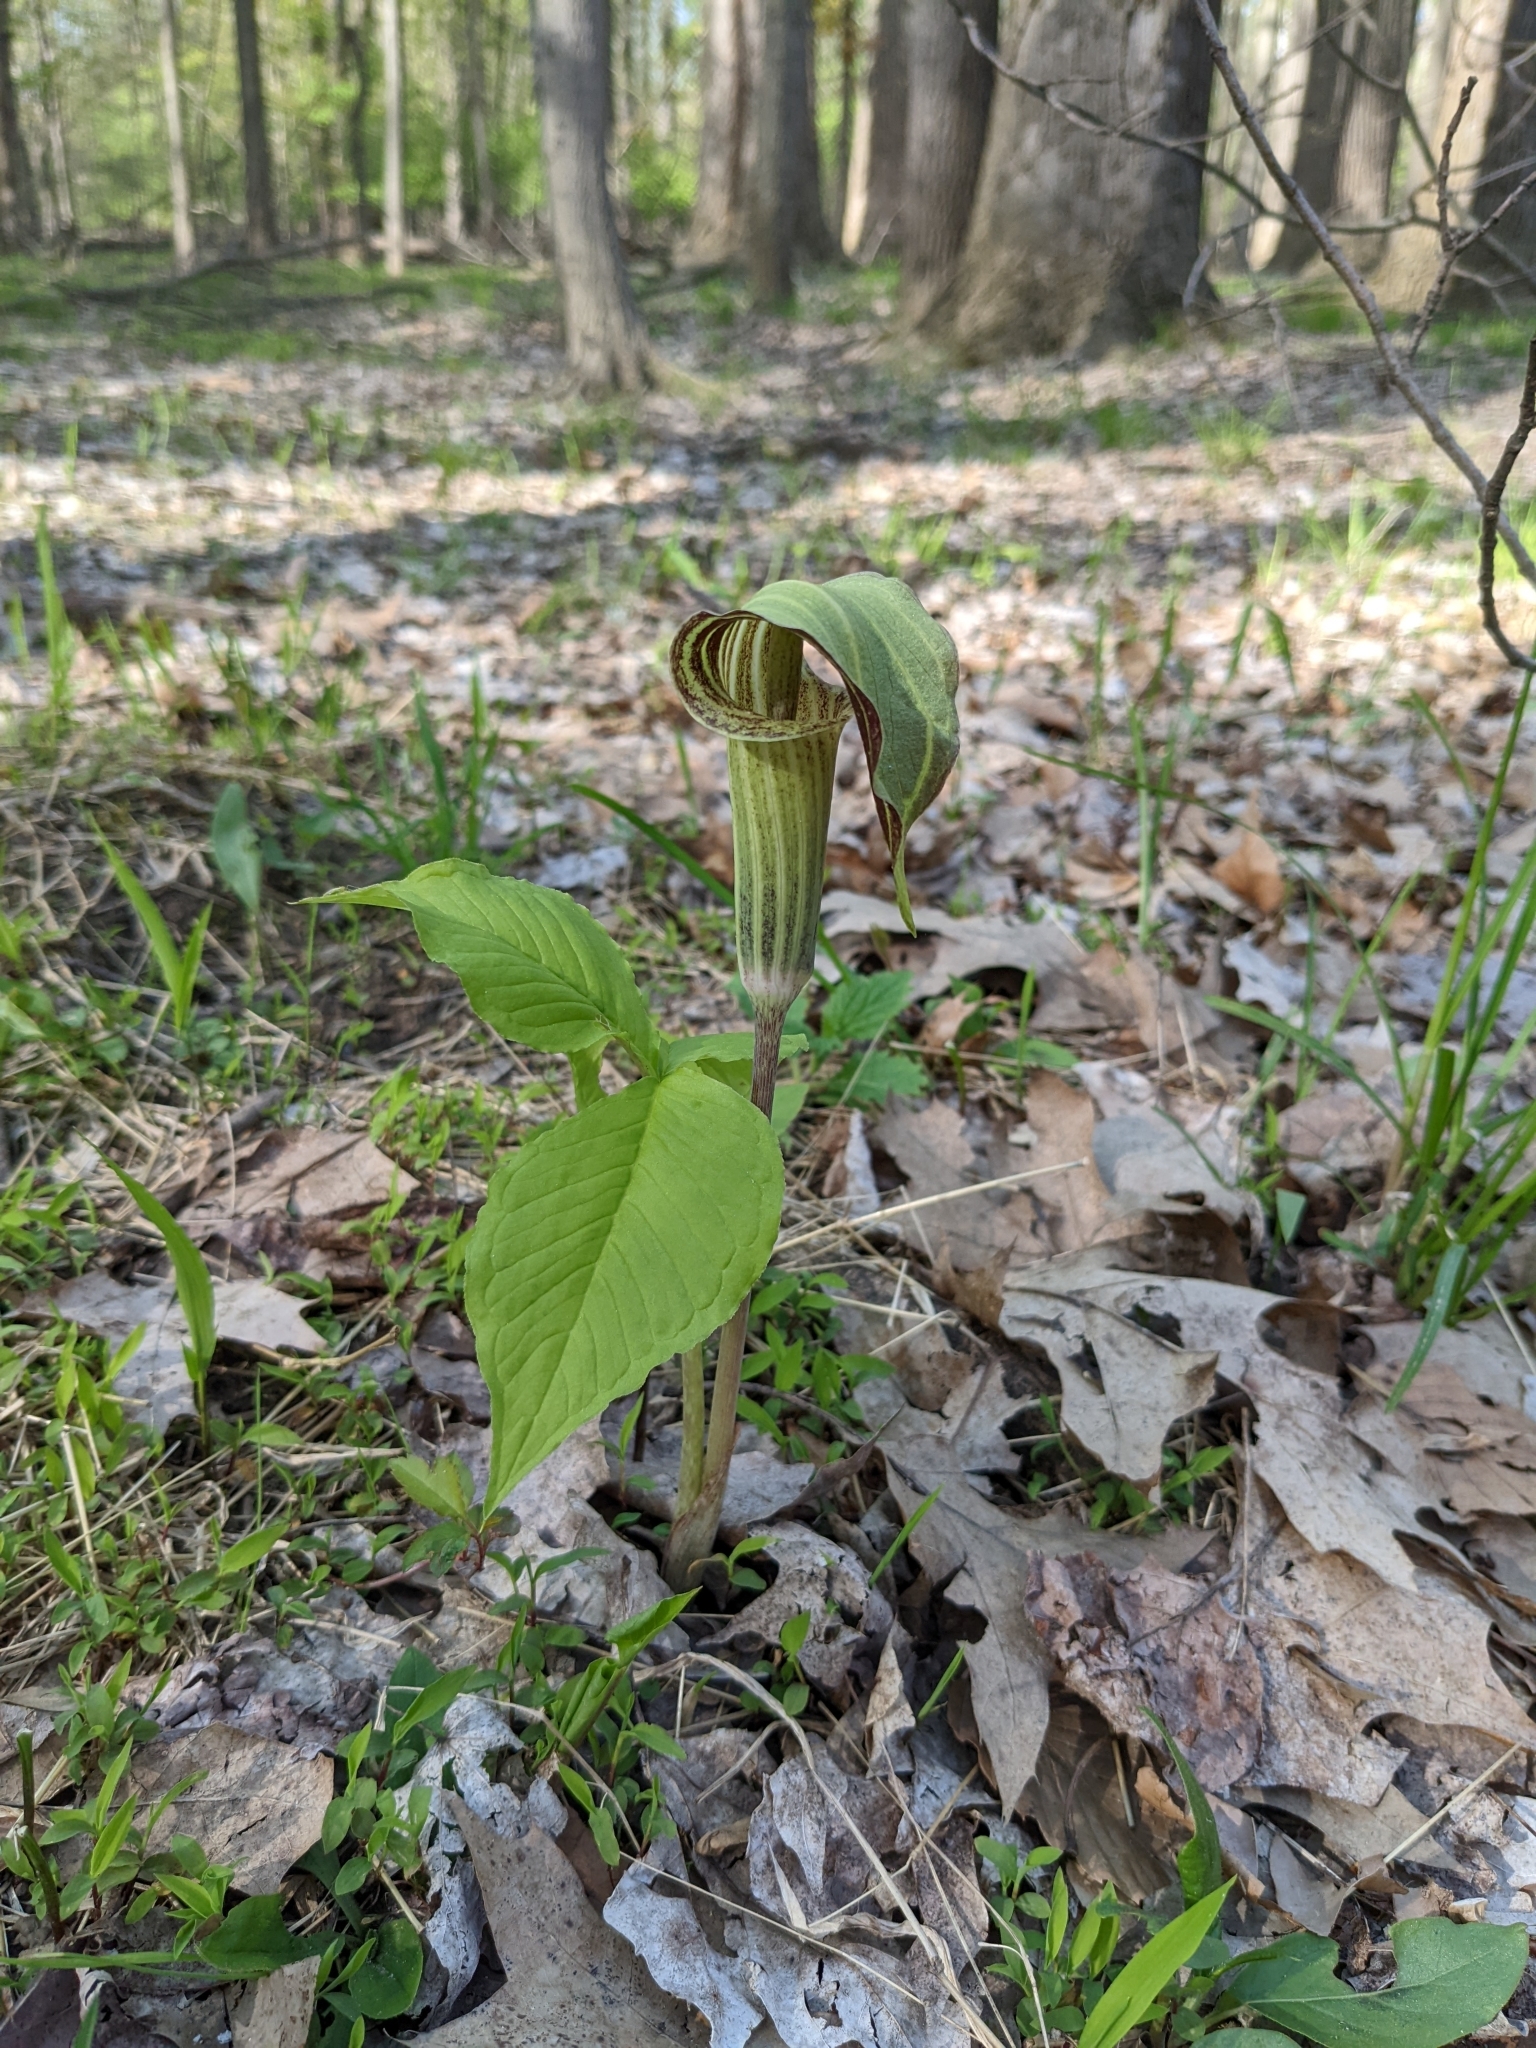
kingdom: Plantae
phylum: Tracheophyta
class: Liliopsida
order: Alismatales
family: Araceae
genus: Arisaema
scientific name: Arisaema triphyllum
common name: Jack-in-the-pulpit
